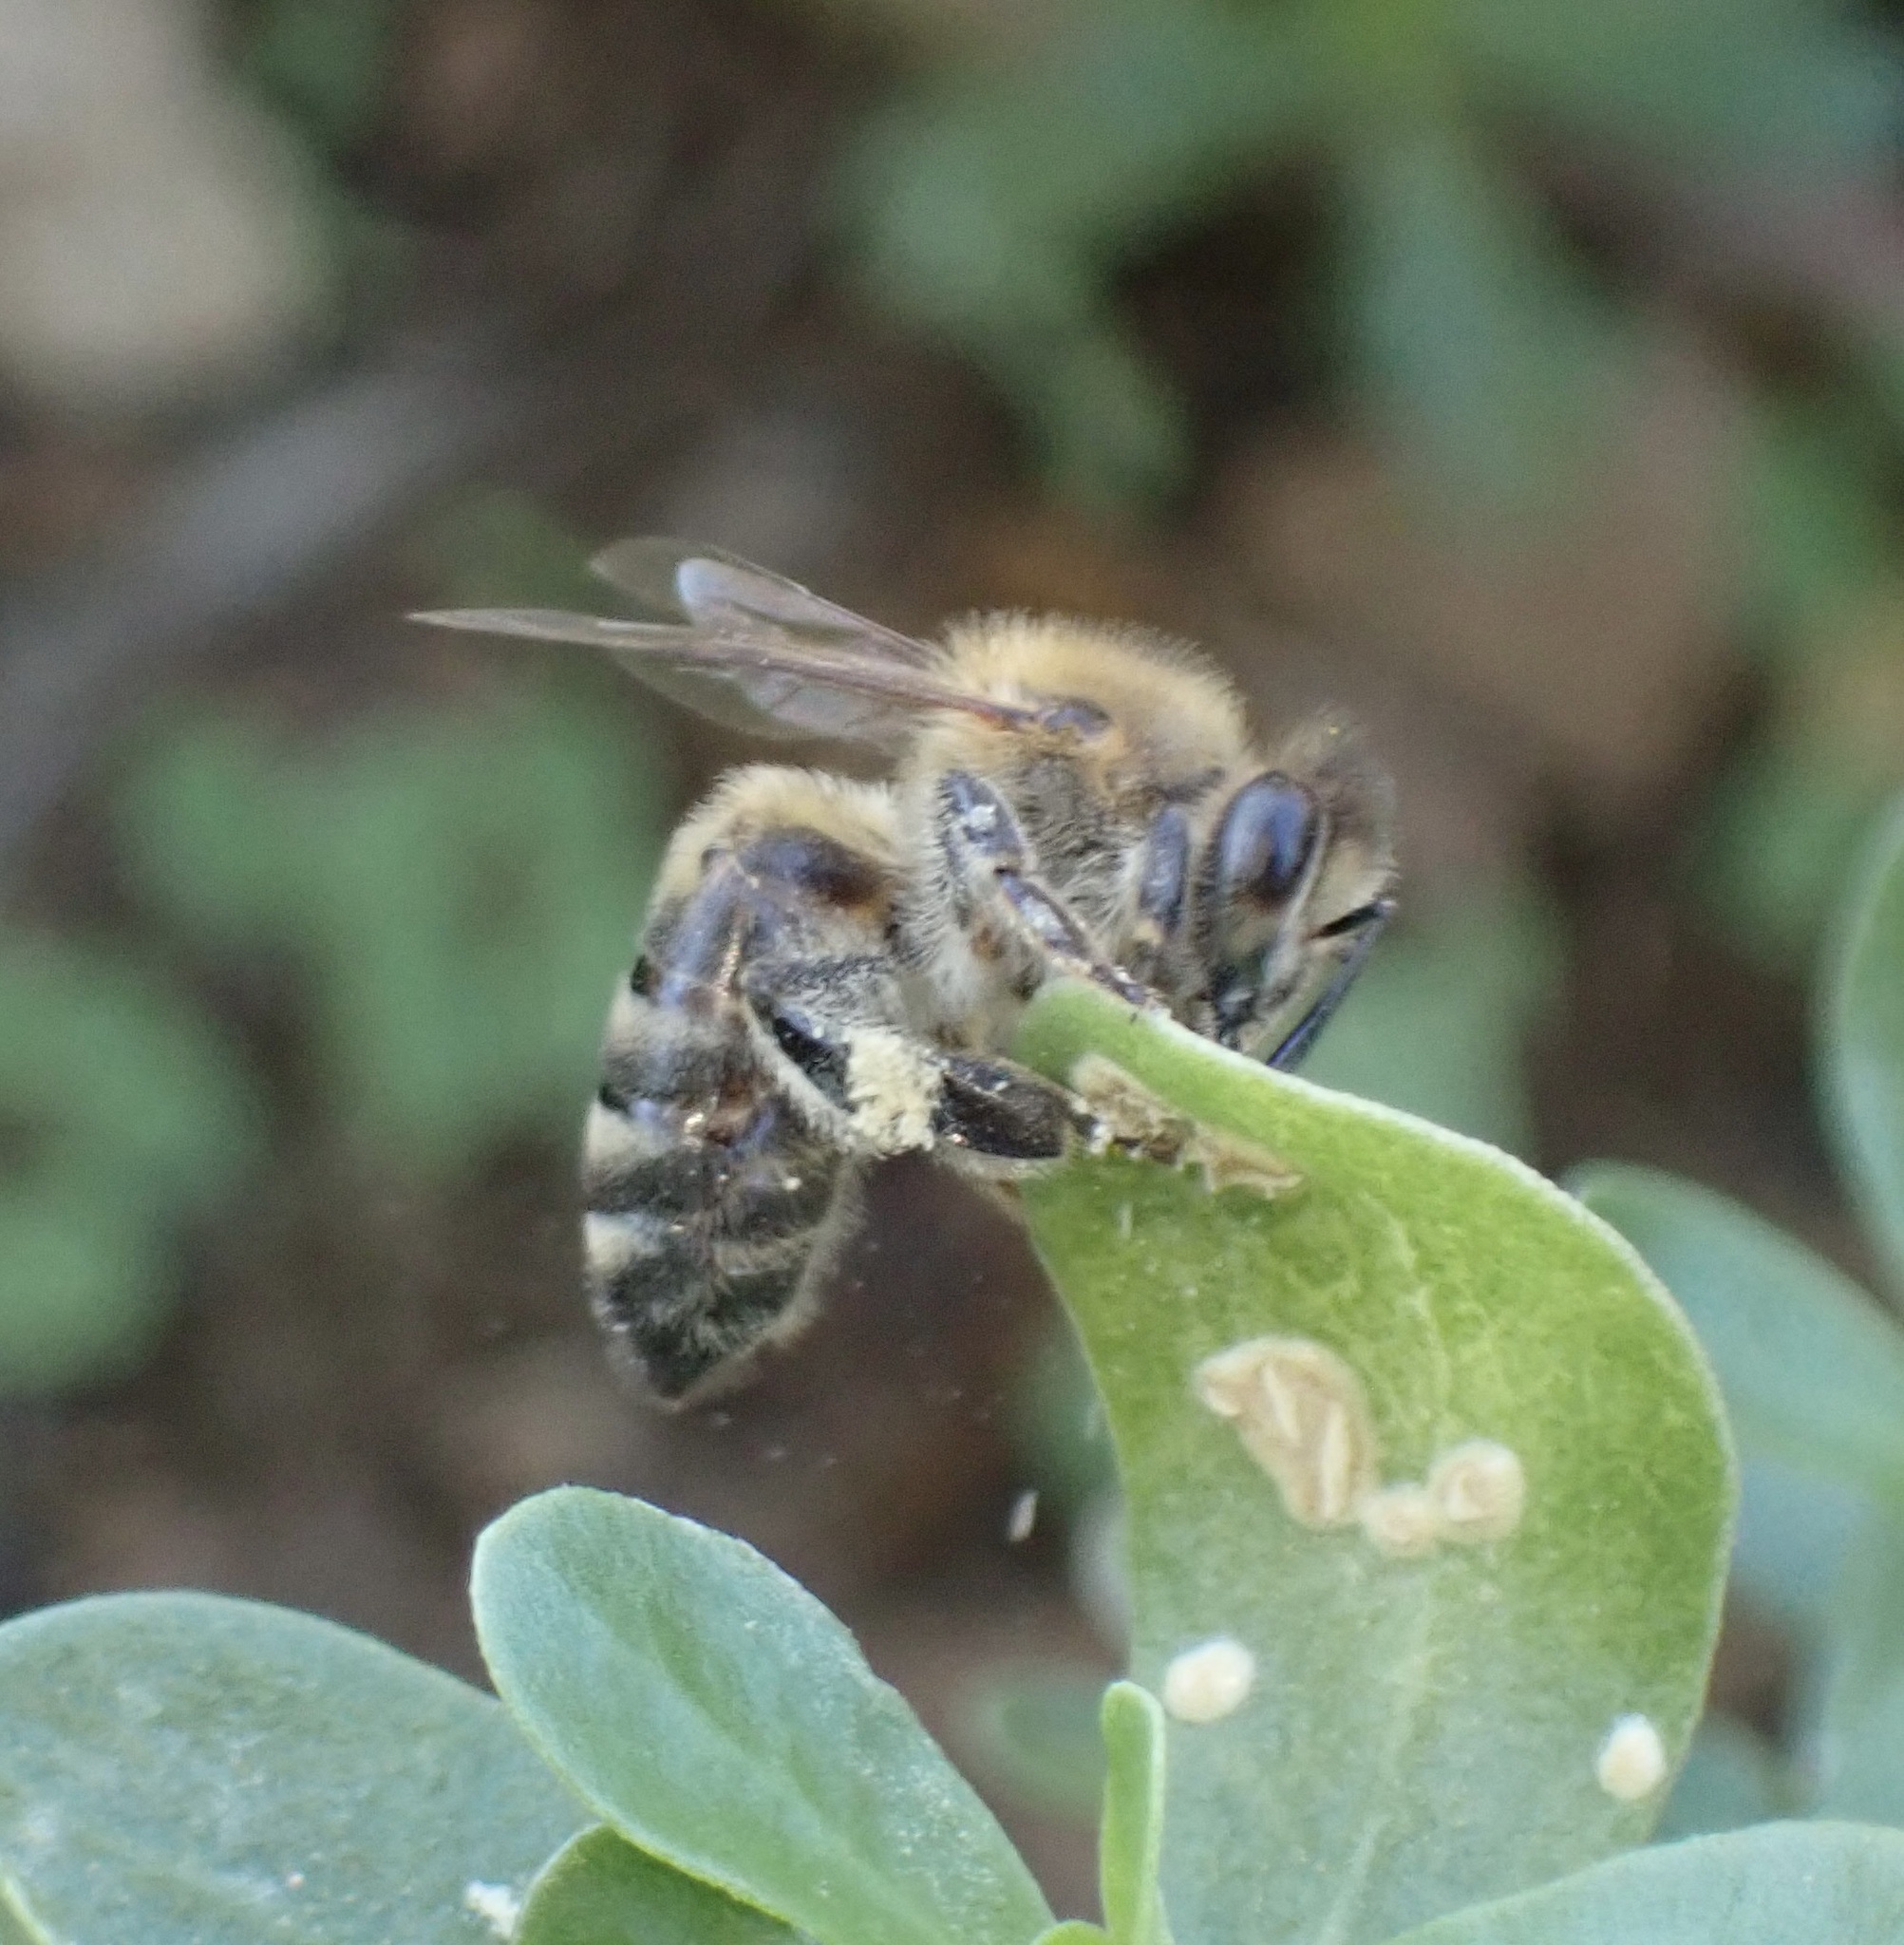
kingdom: Animalia
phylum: Arthropoda
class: Insecta
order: Hymenoptera
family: Apidae
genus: Apis
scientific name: Apis mellifera
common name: Honey bee
